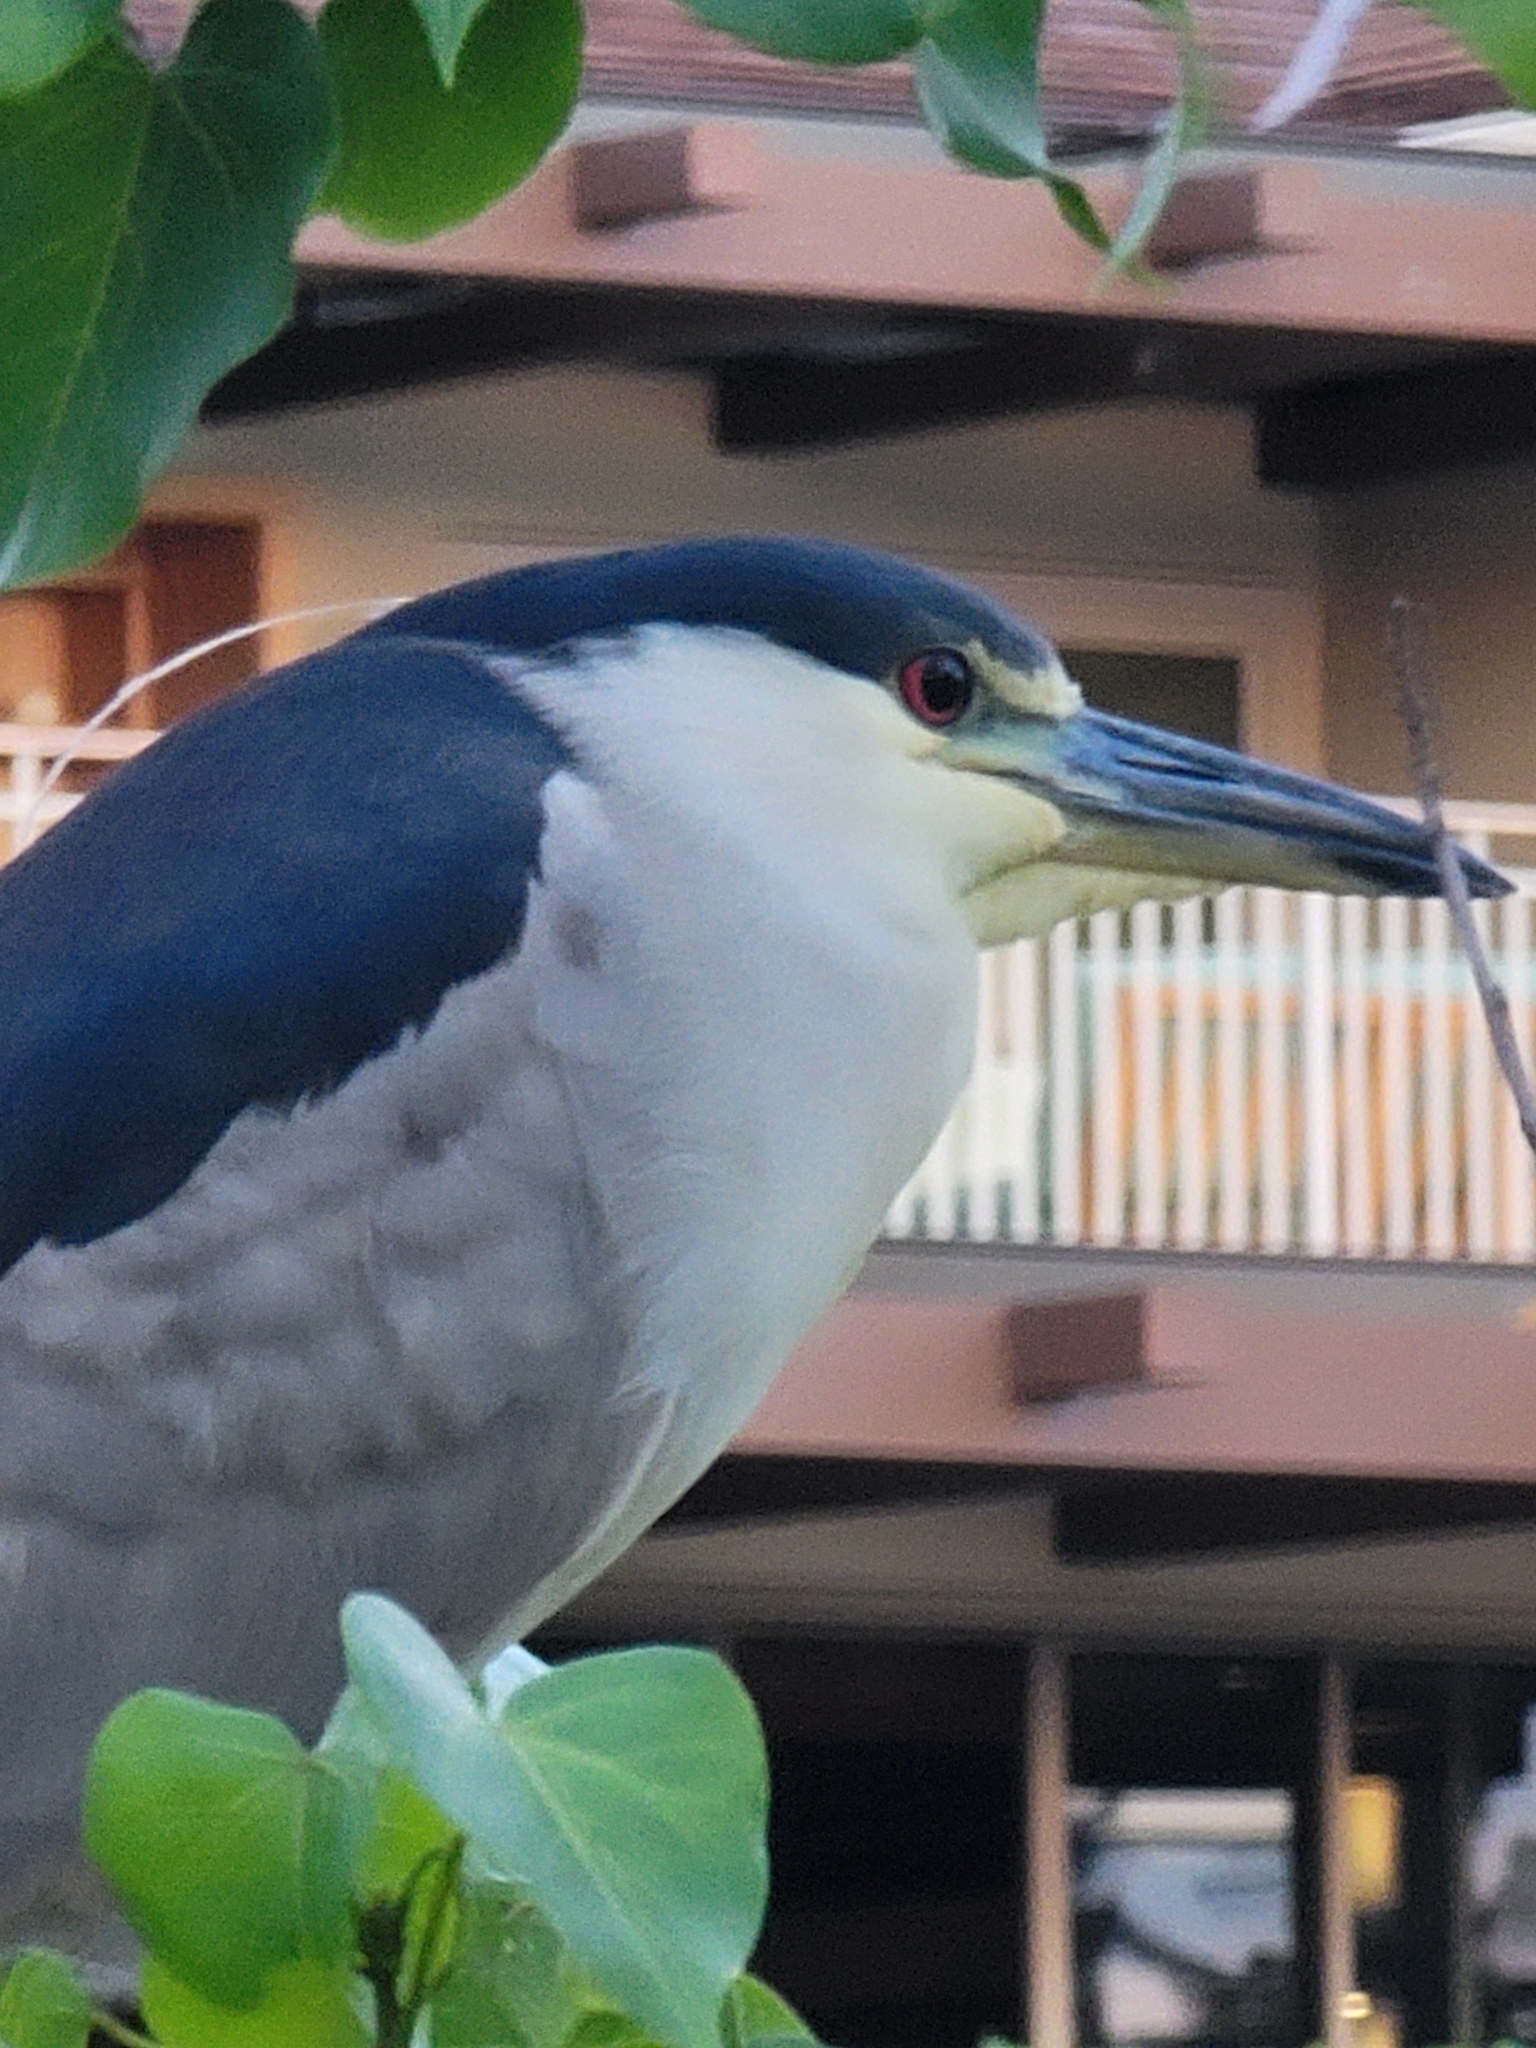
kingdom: Animalia
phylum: Chordata
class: Aves
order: Pelecaniformes
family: Ardeidae
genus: Nycticorax
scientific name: Nycticorax nycticorax
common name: Black-crowned night heron
